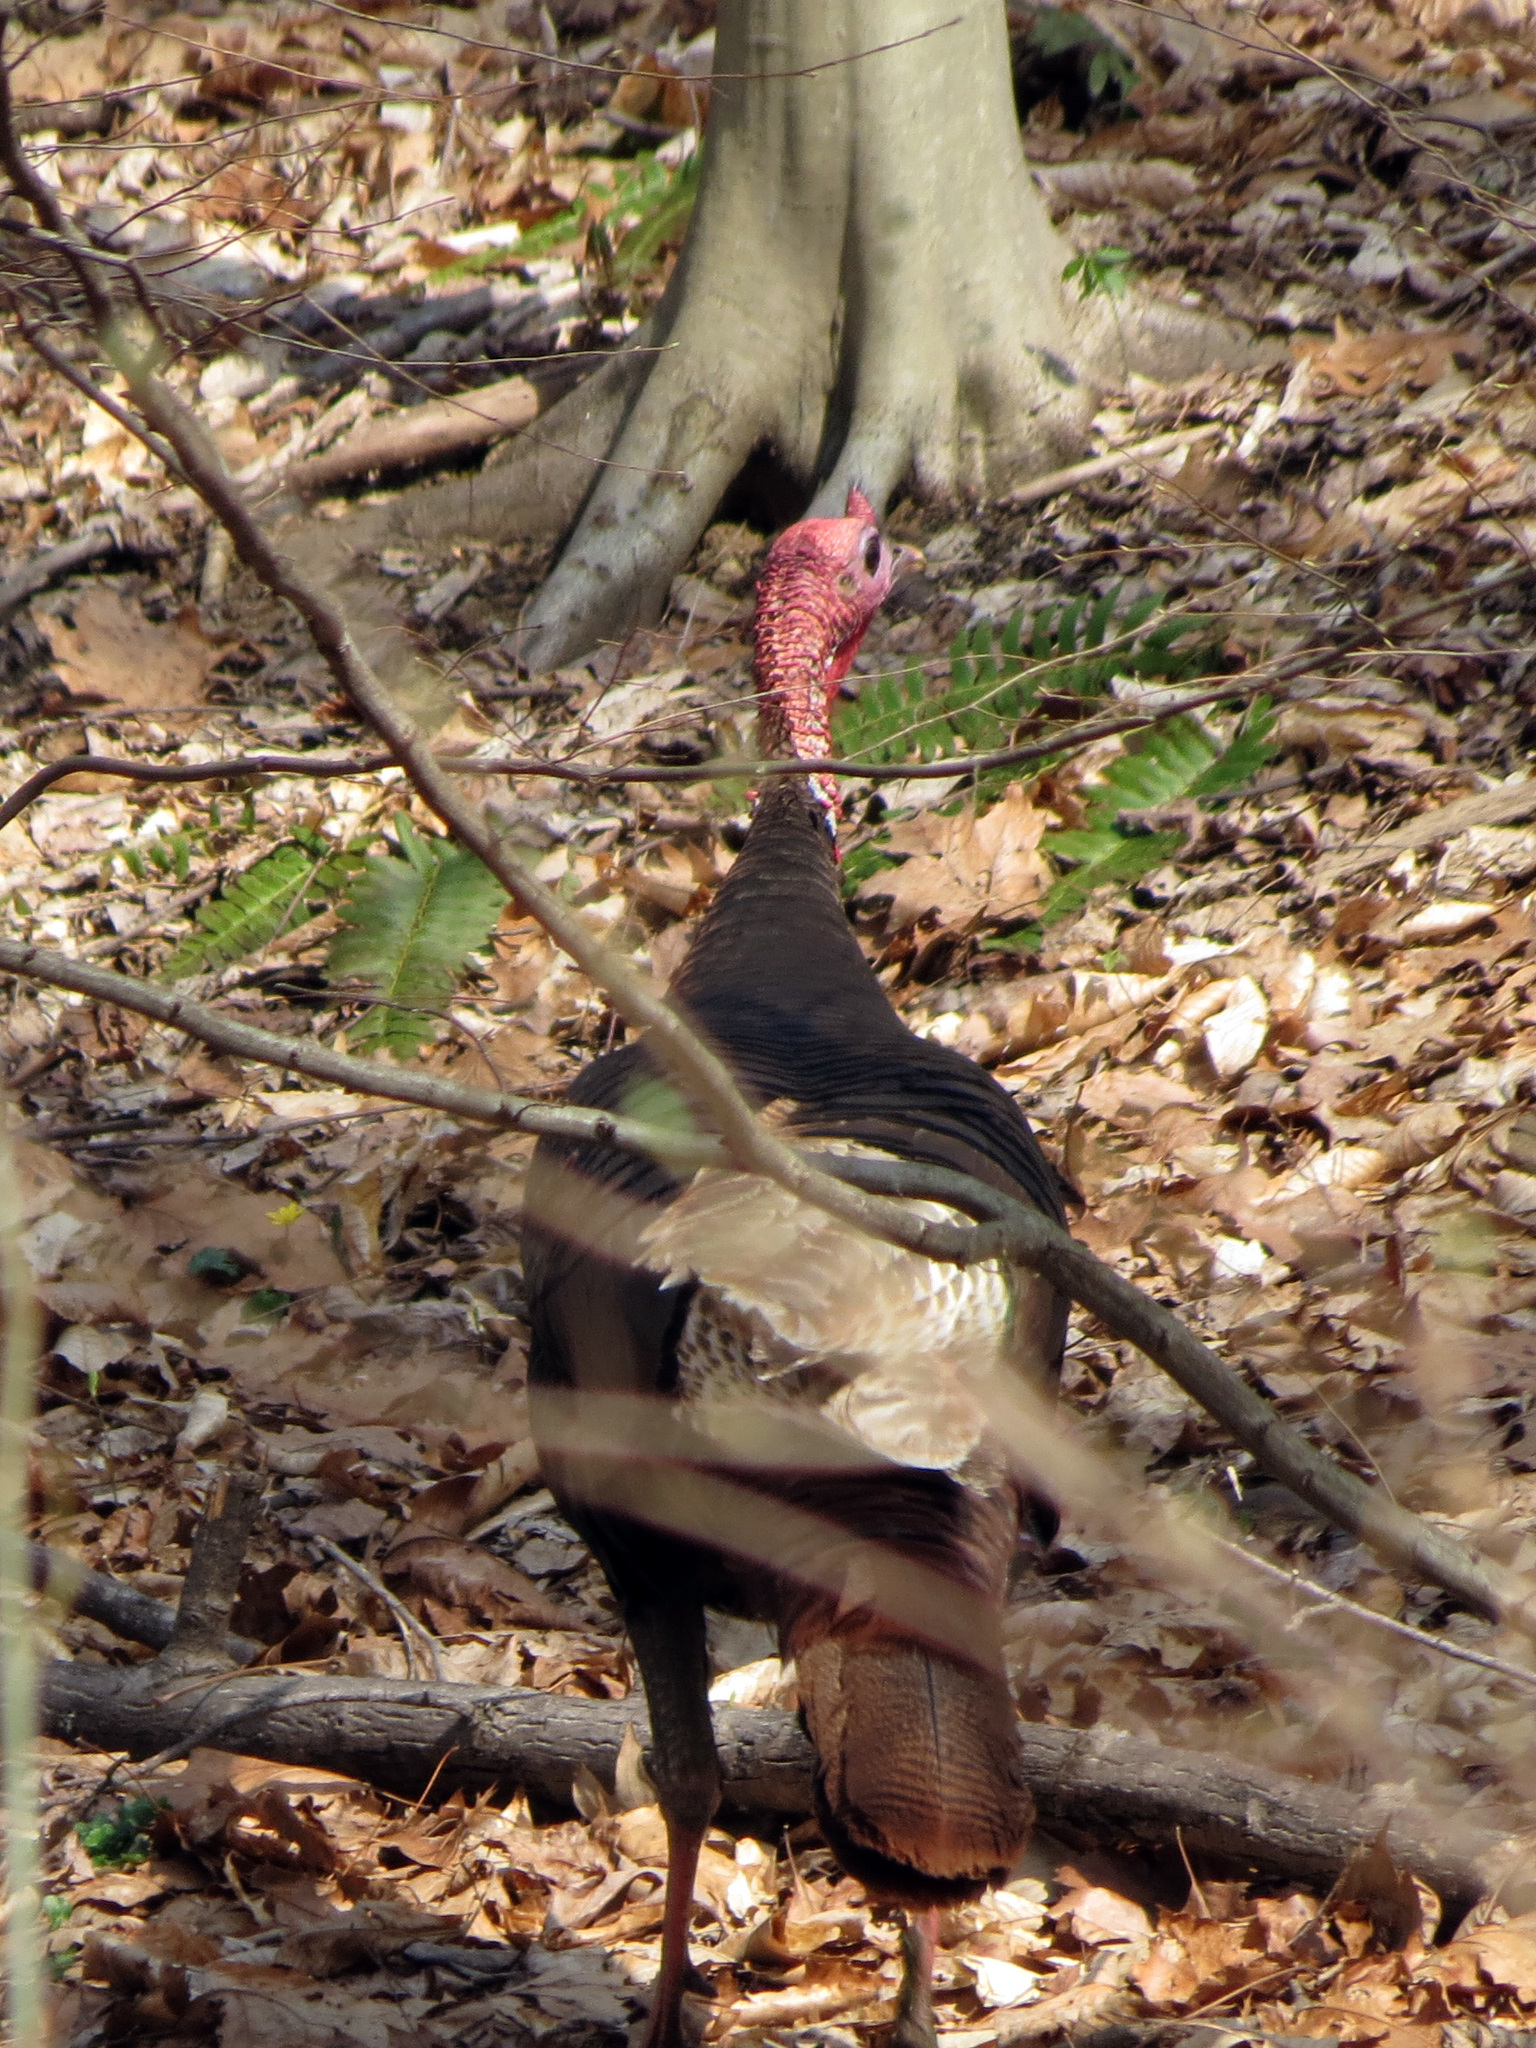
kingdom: Animalia
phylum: Chordata
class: Aves
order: Galliformes
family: Phasianidae
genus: Meleagris
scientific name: Meleagris gallopavo
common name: Wild turkey
